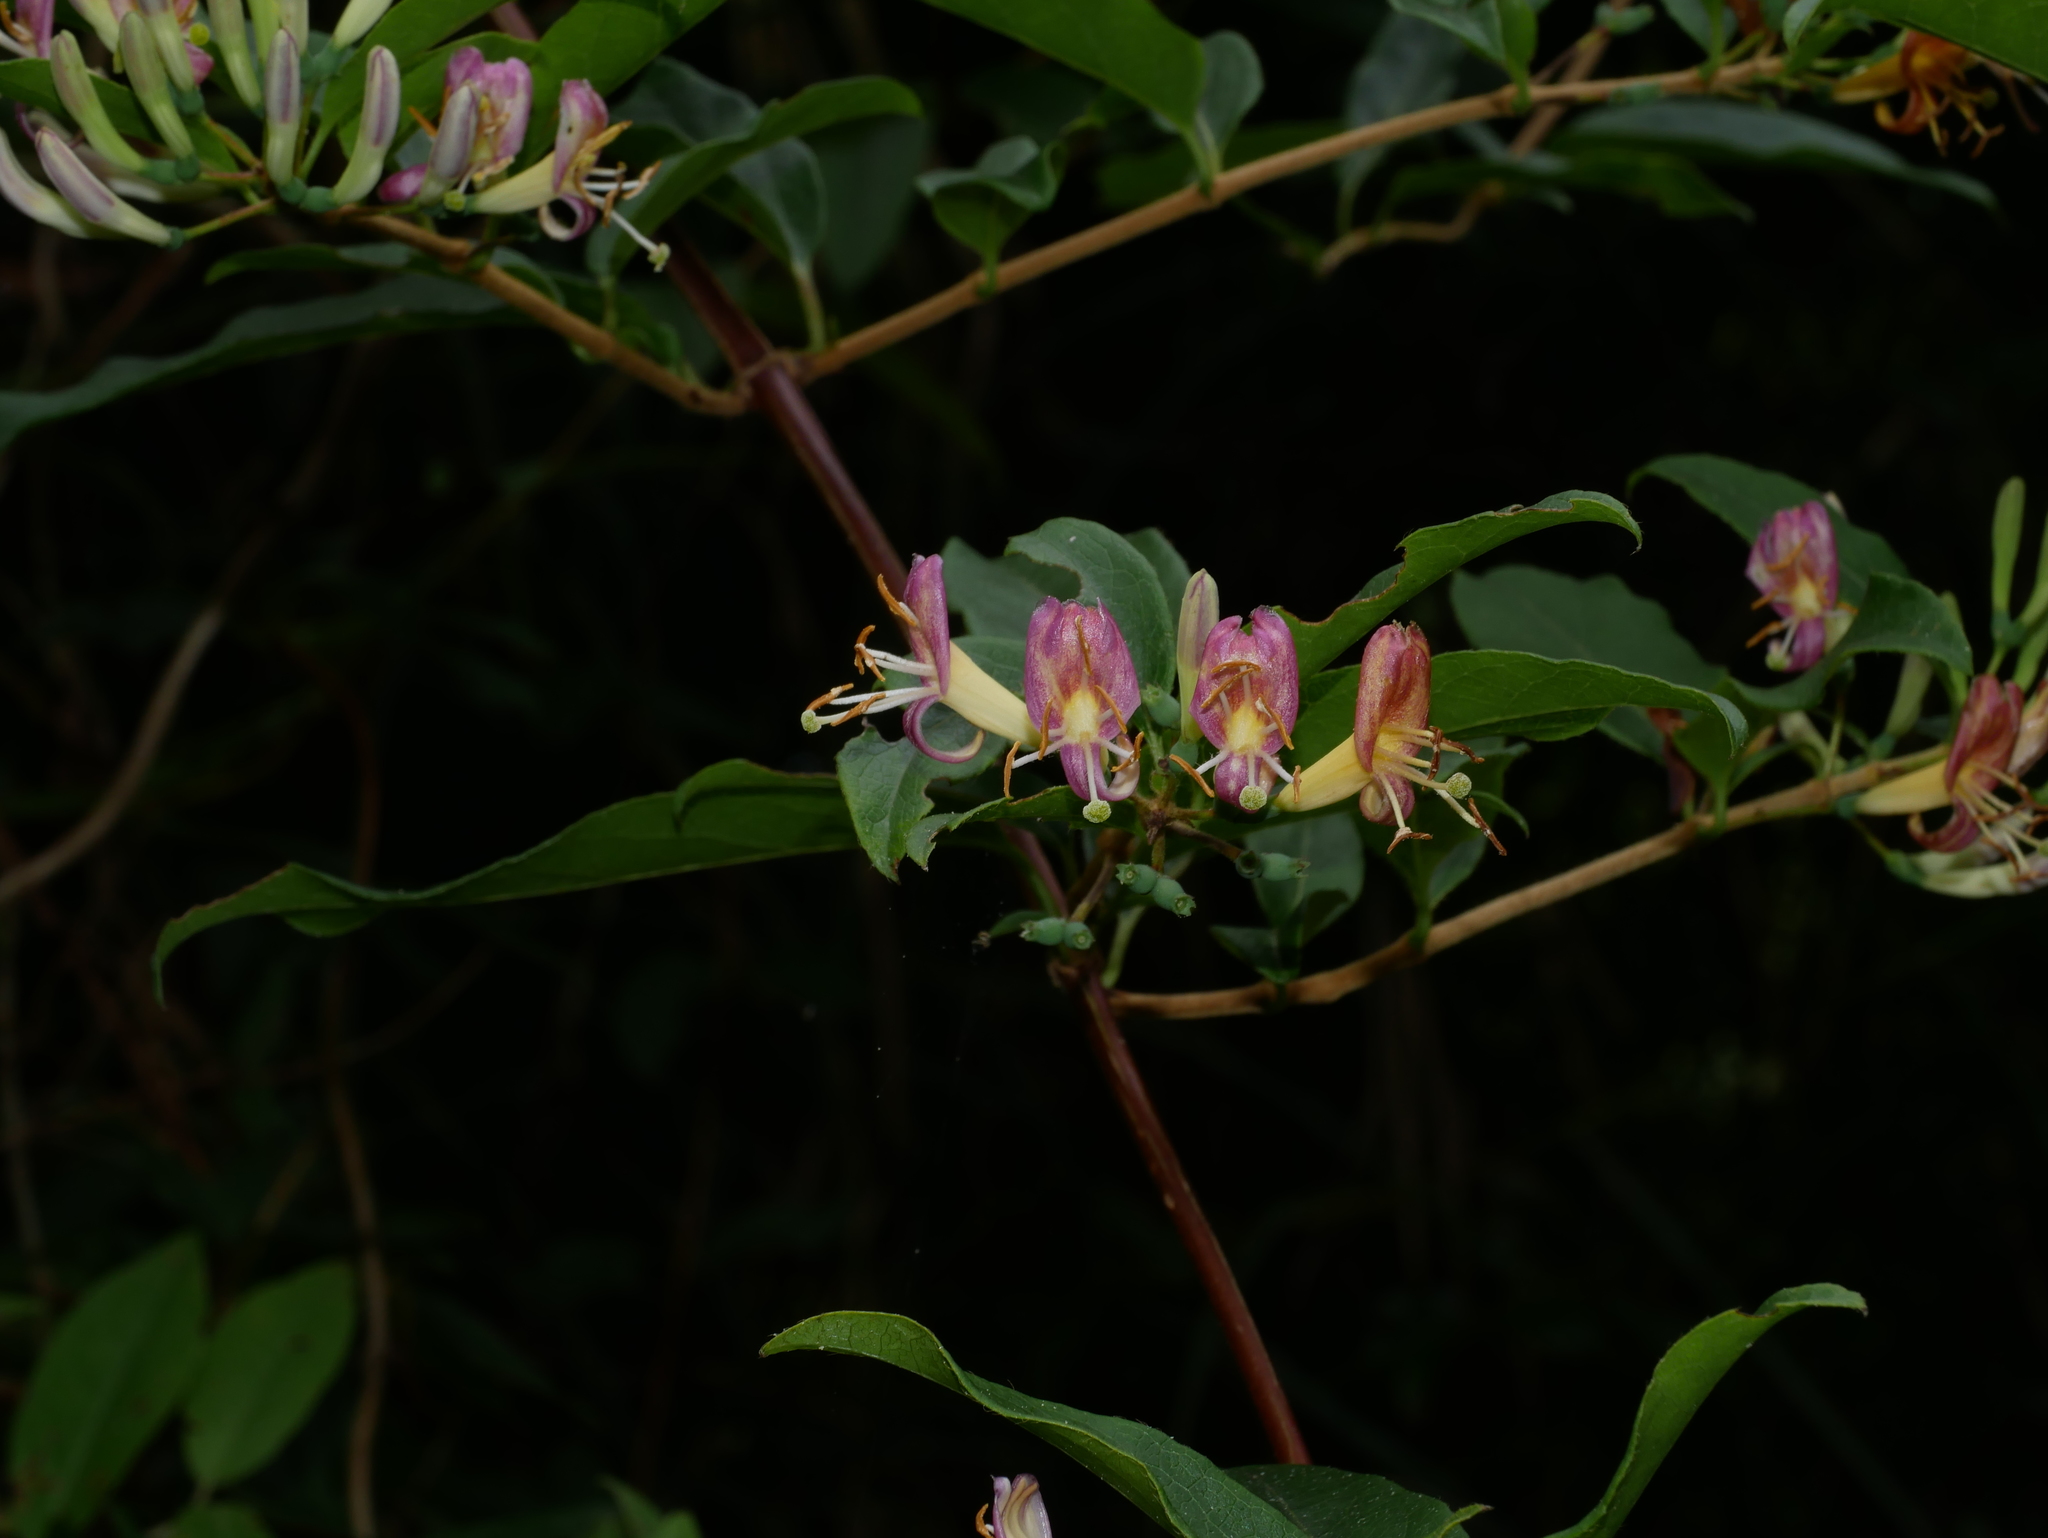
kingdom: Plantae
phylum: Tracheophyta
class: Magnoliopsida
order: Dipsacales
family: Caprifoliaceae
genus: Lonicera
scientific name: Lonicera acuminata
